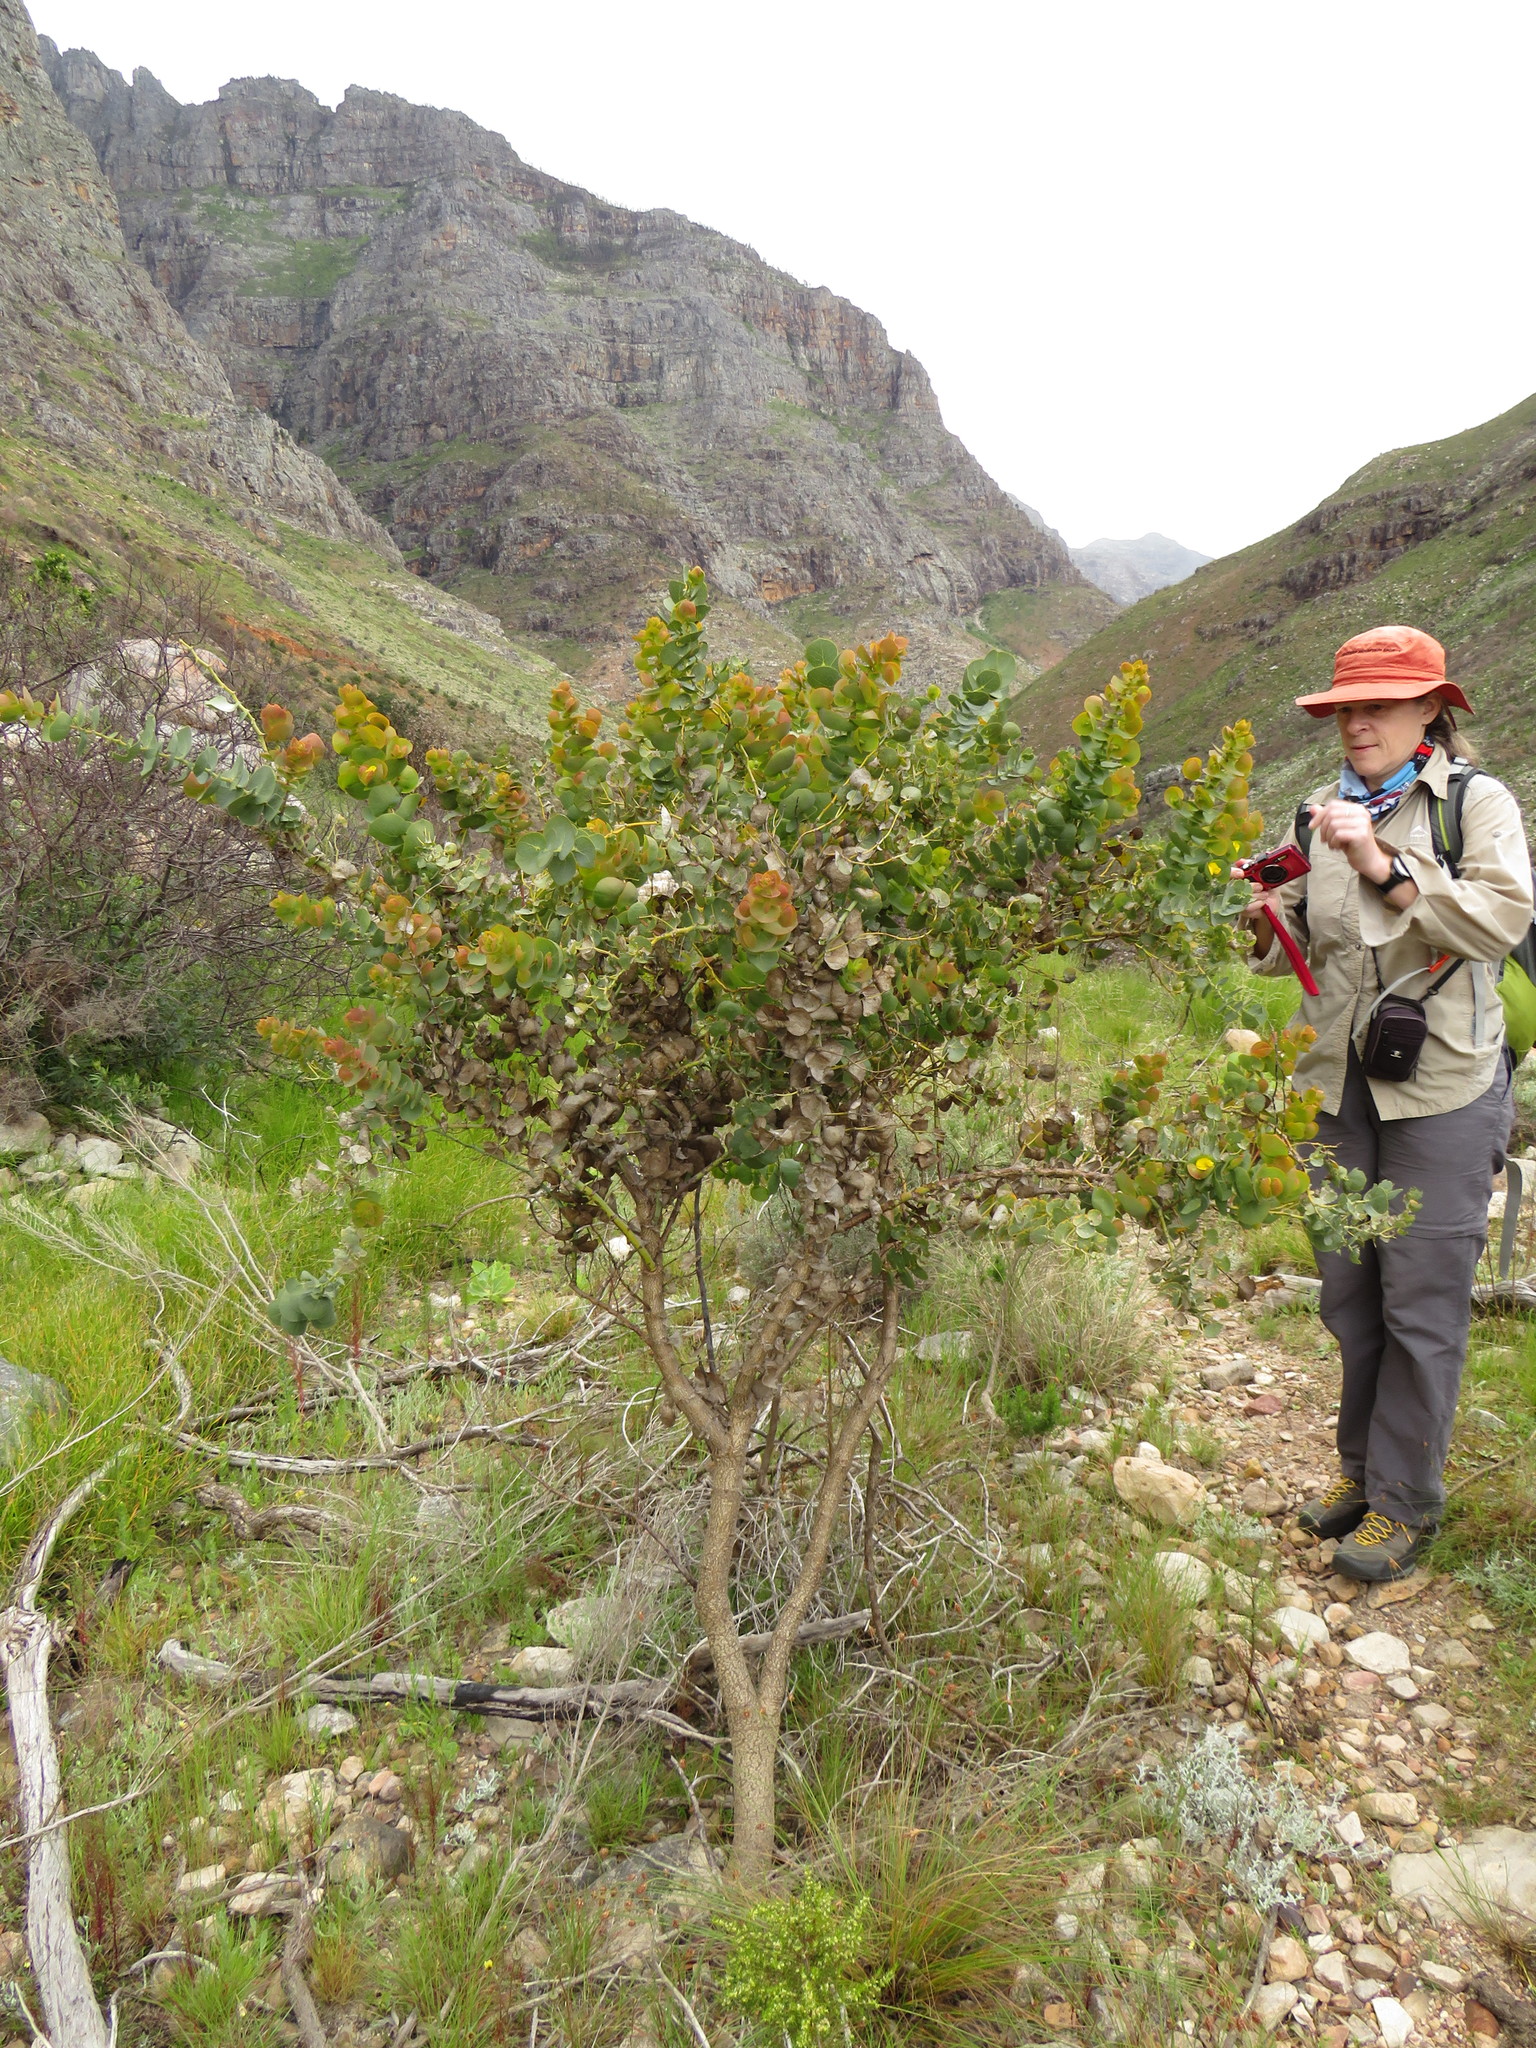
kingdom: Plantae
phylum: Tracheophyta
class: Magnoliopsida
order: Fabales
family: Fabaceae
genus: Rafnia
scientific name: Rafnia amplexicaulis
